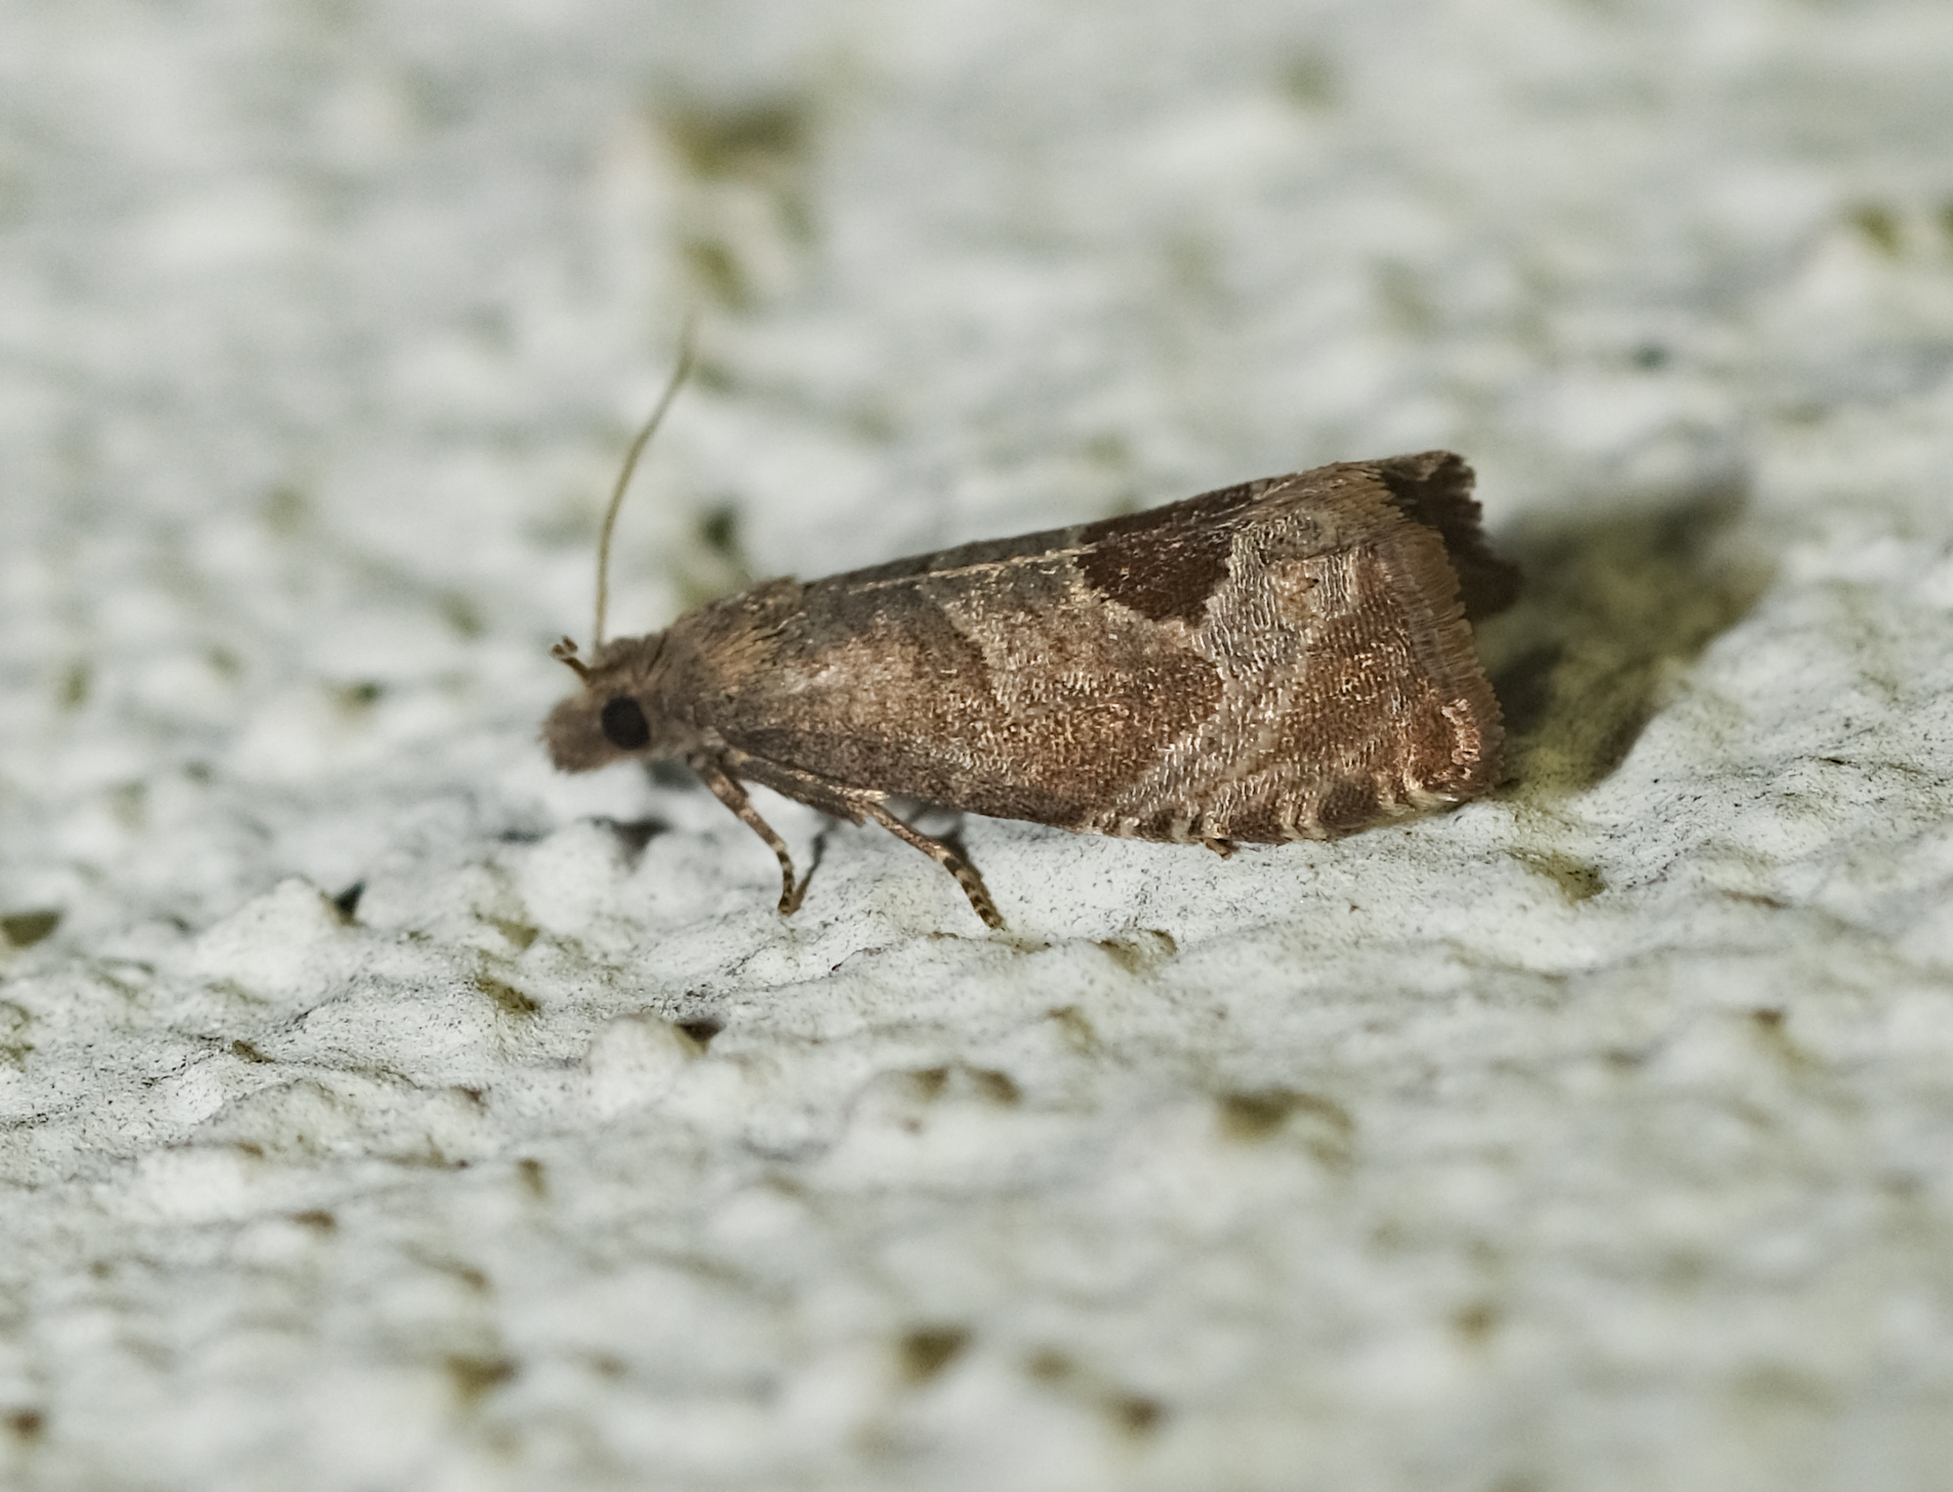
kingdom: Animalia
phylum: Arthropoda
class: Insecta
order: Lepidoptera
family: Tortricidae
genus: Notocelia
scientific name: Notocelia uddmanniana
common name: Bramble shoot moth
